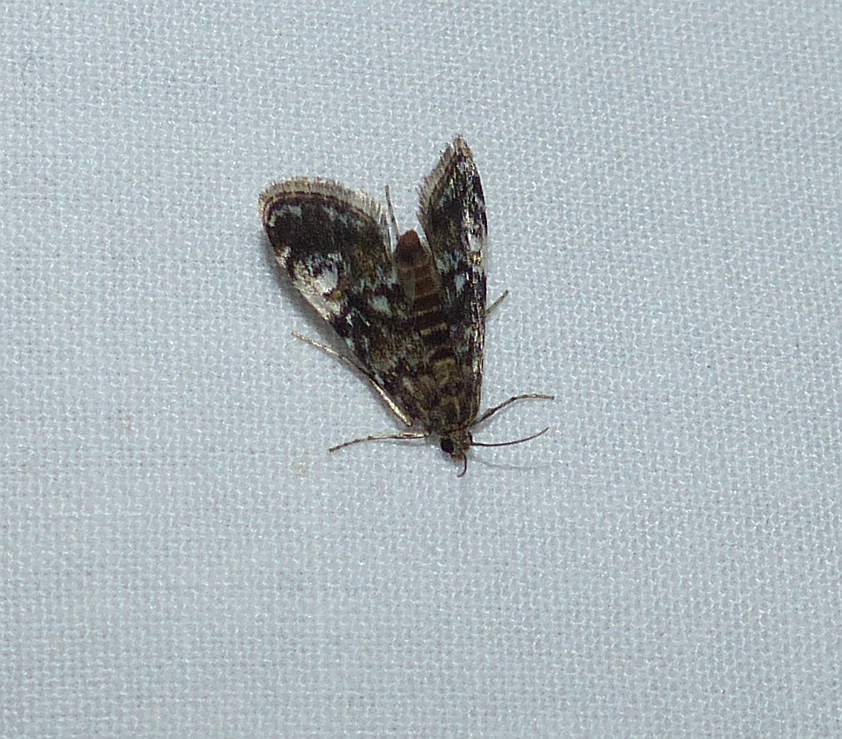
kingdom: Animalia
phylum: Arthropoda
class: Insecta
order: Lepidoptera
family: Crambidae
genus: Elophila
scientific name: Elophila obliteralis
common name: Waterlily leafcutter moth
